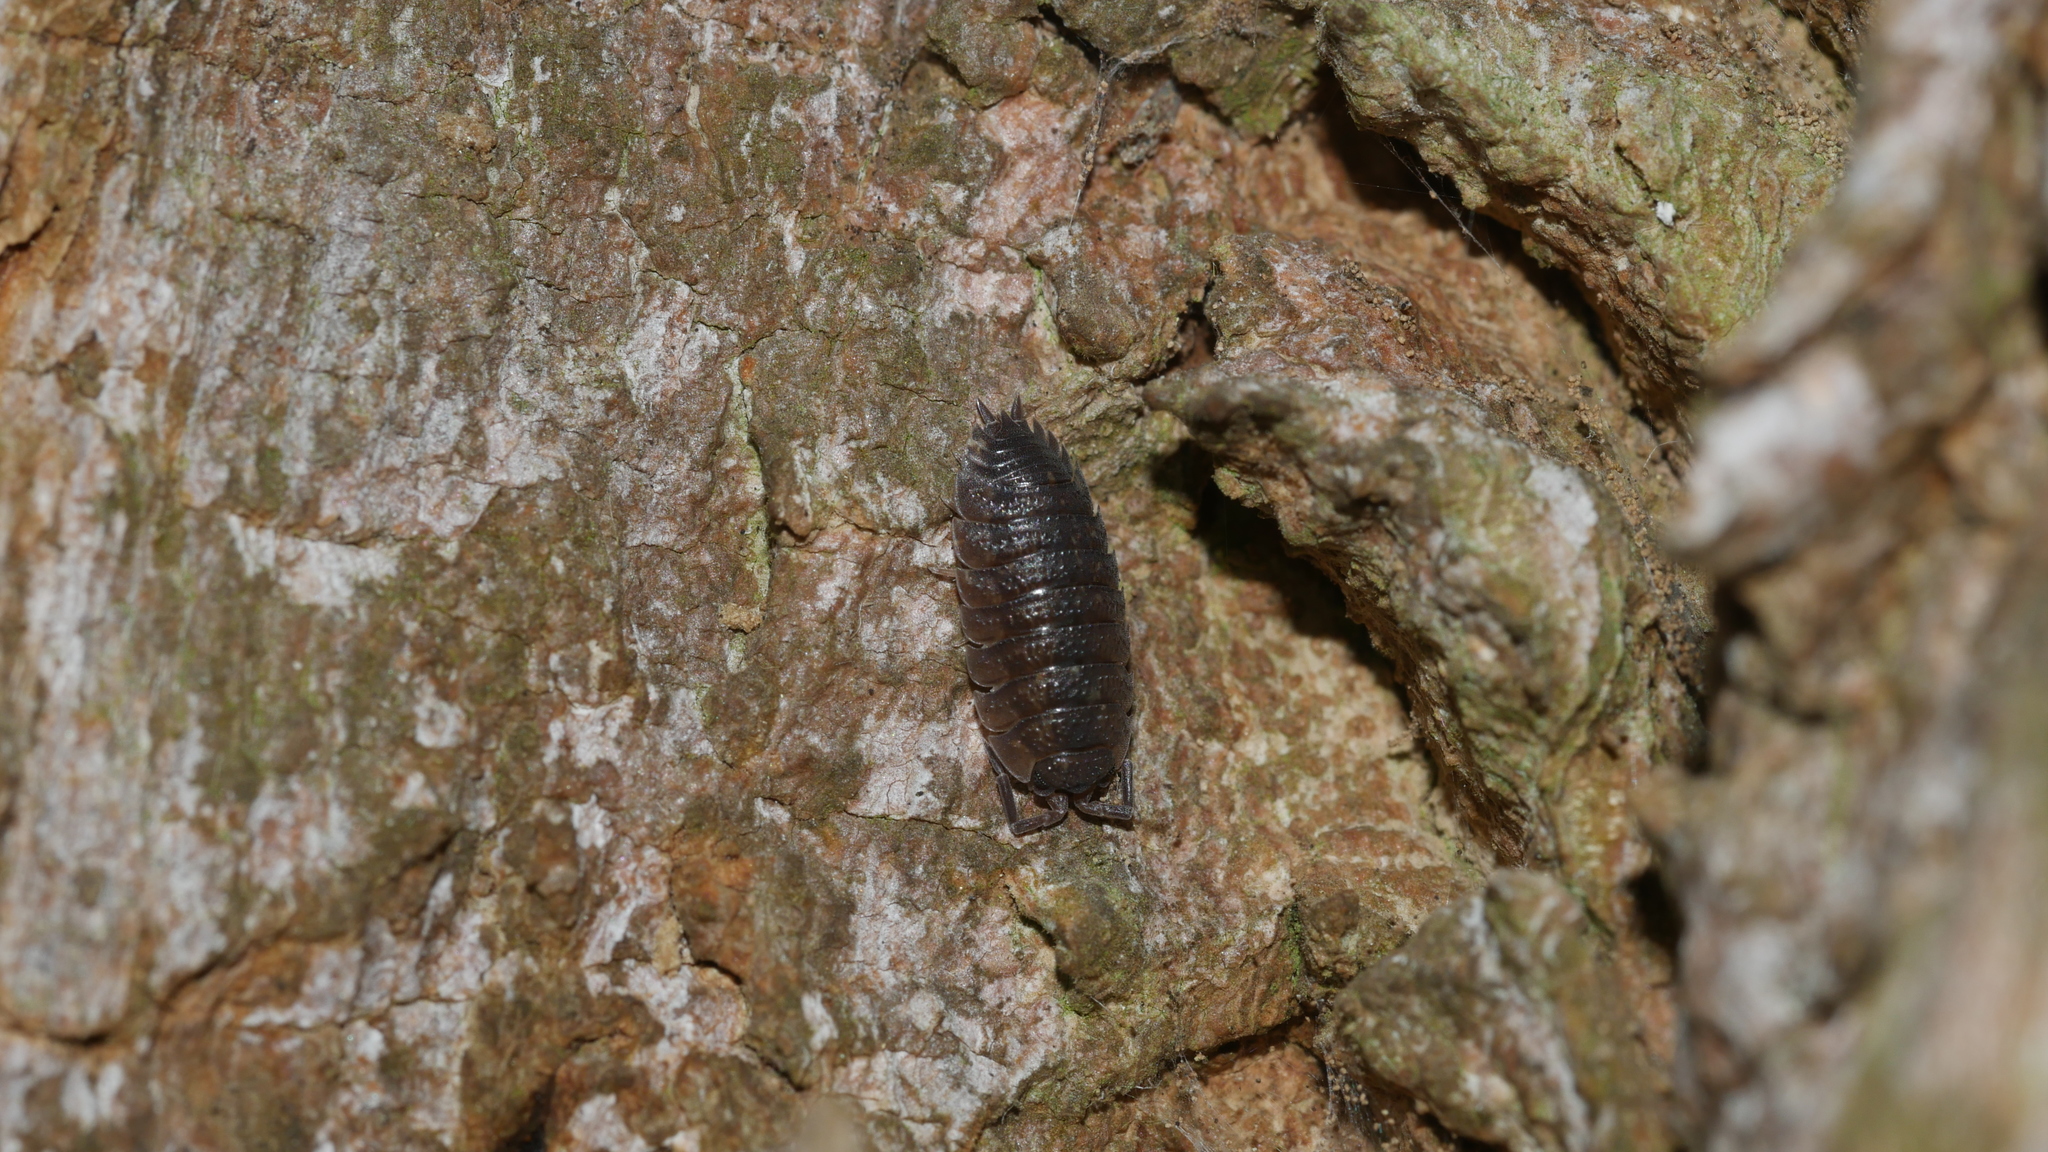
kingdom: Animalia
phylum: Arthropoda
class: Malacostraca
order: Isopoda
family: Porcellionidae
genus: Porcellio
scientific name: Porcellio scaber
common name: Common rough woodlouse
